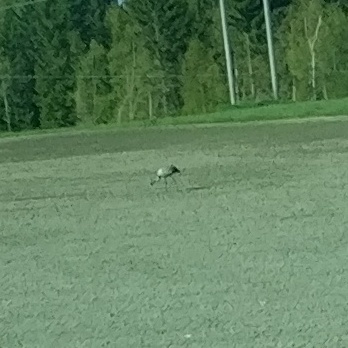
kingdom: Animalia
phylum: Chordata
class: Aves
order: Gruiformes
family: Gruidae
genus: Grus
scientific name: Grus grus
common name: Common crane
